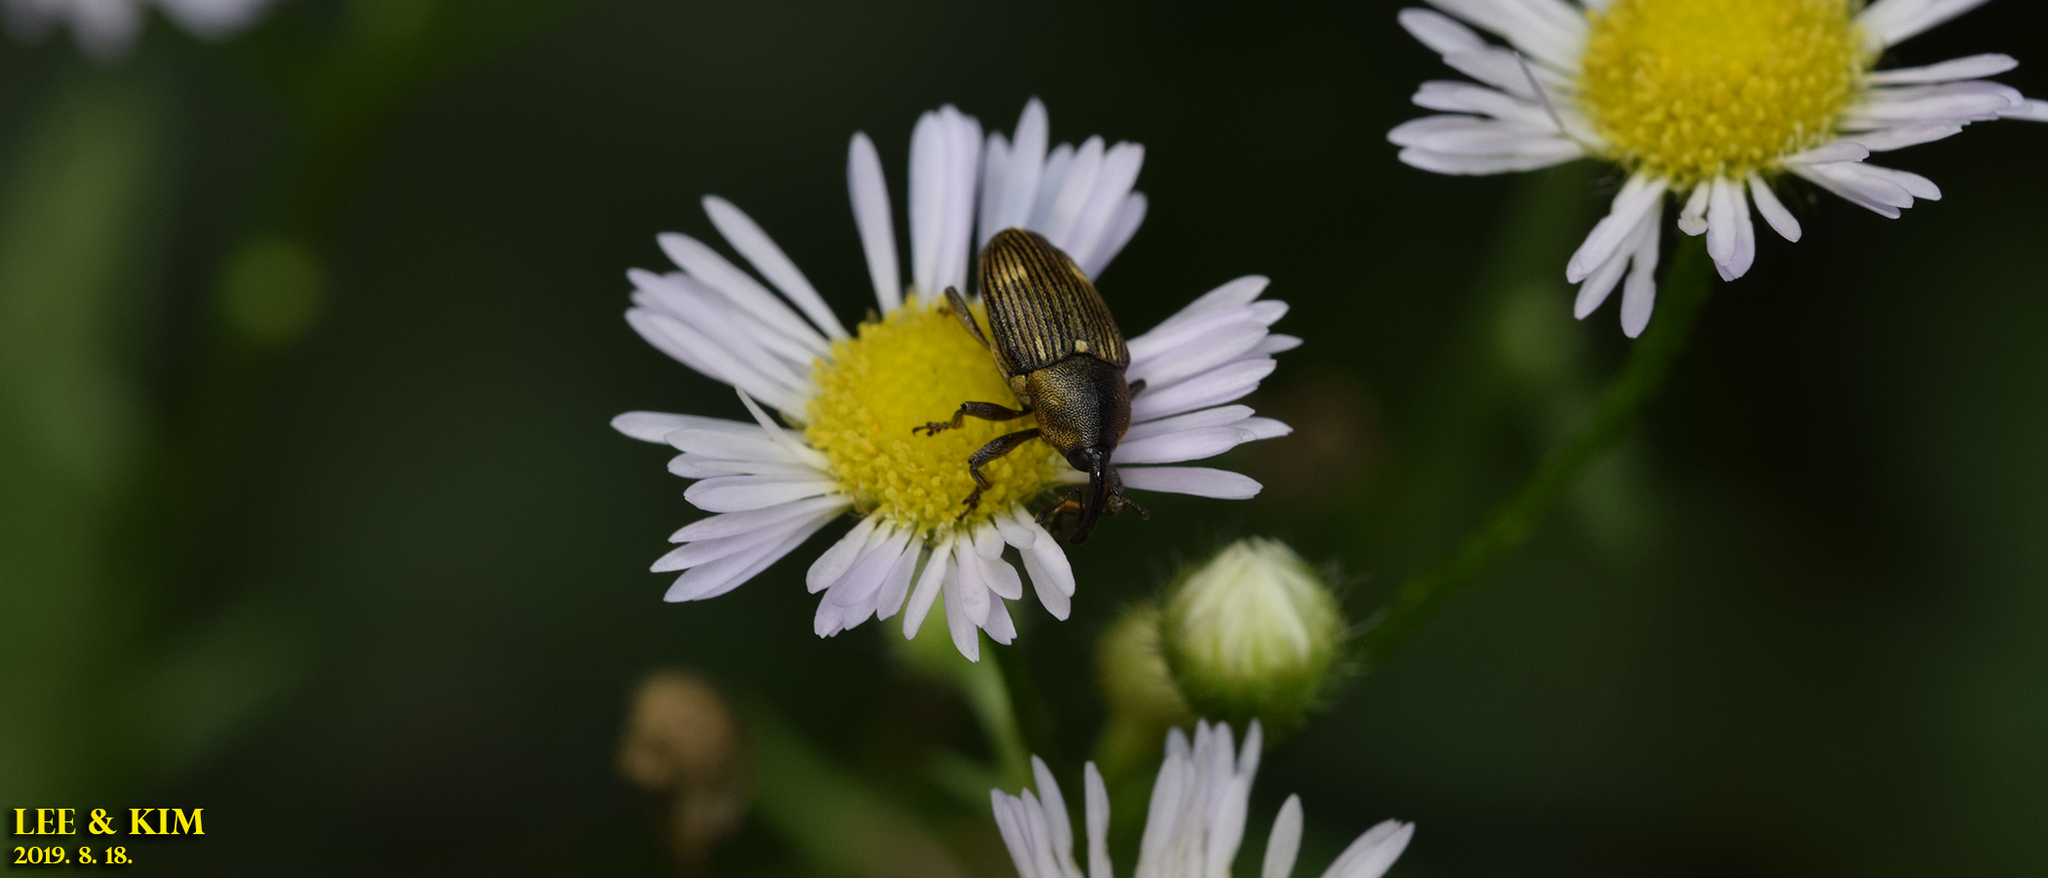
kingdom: Animalia
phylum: Arthropoda
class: Insecta
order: Coleoptera
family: Curculionidae
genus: Anthinobaris
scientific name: Anthinobaris dispilota
